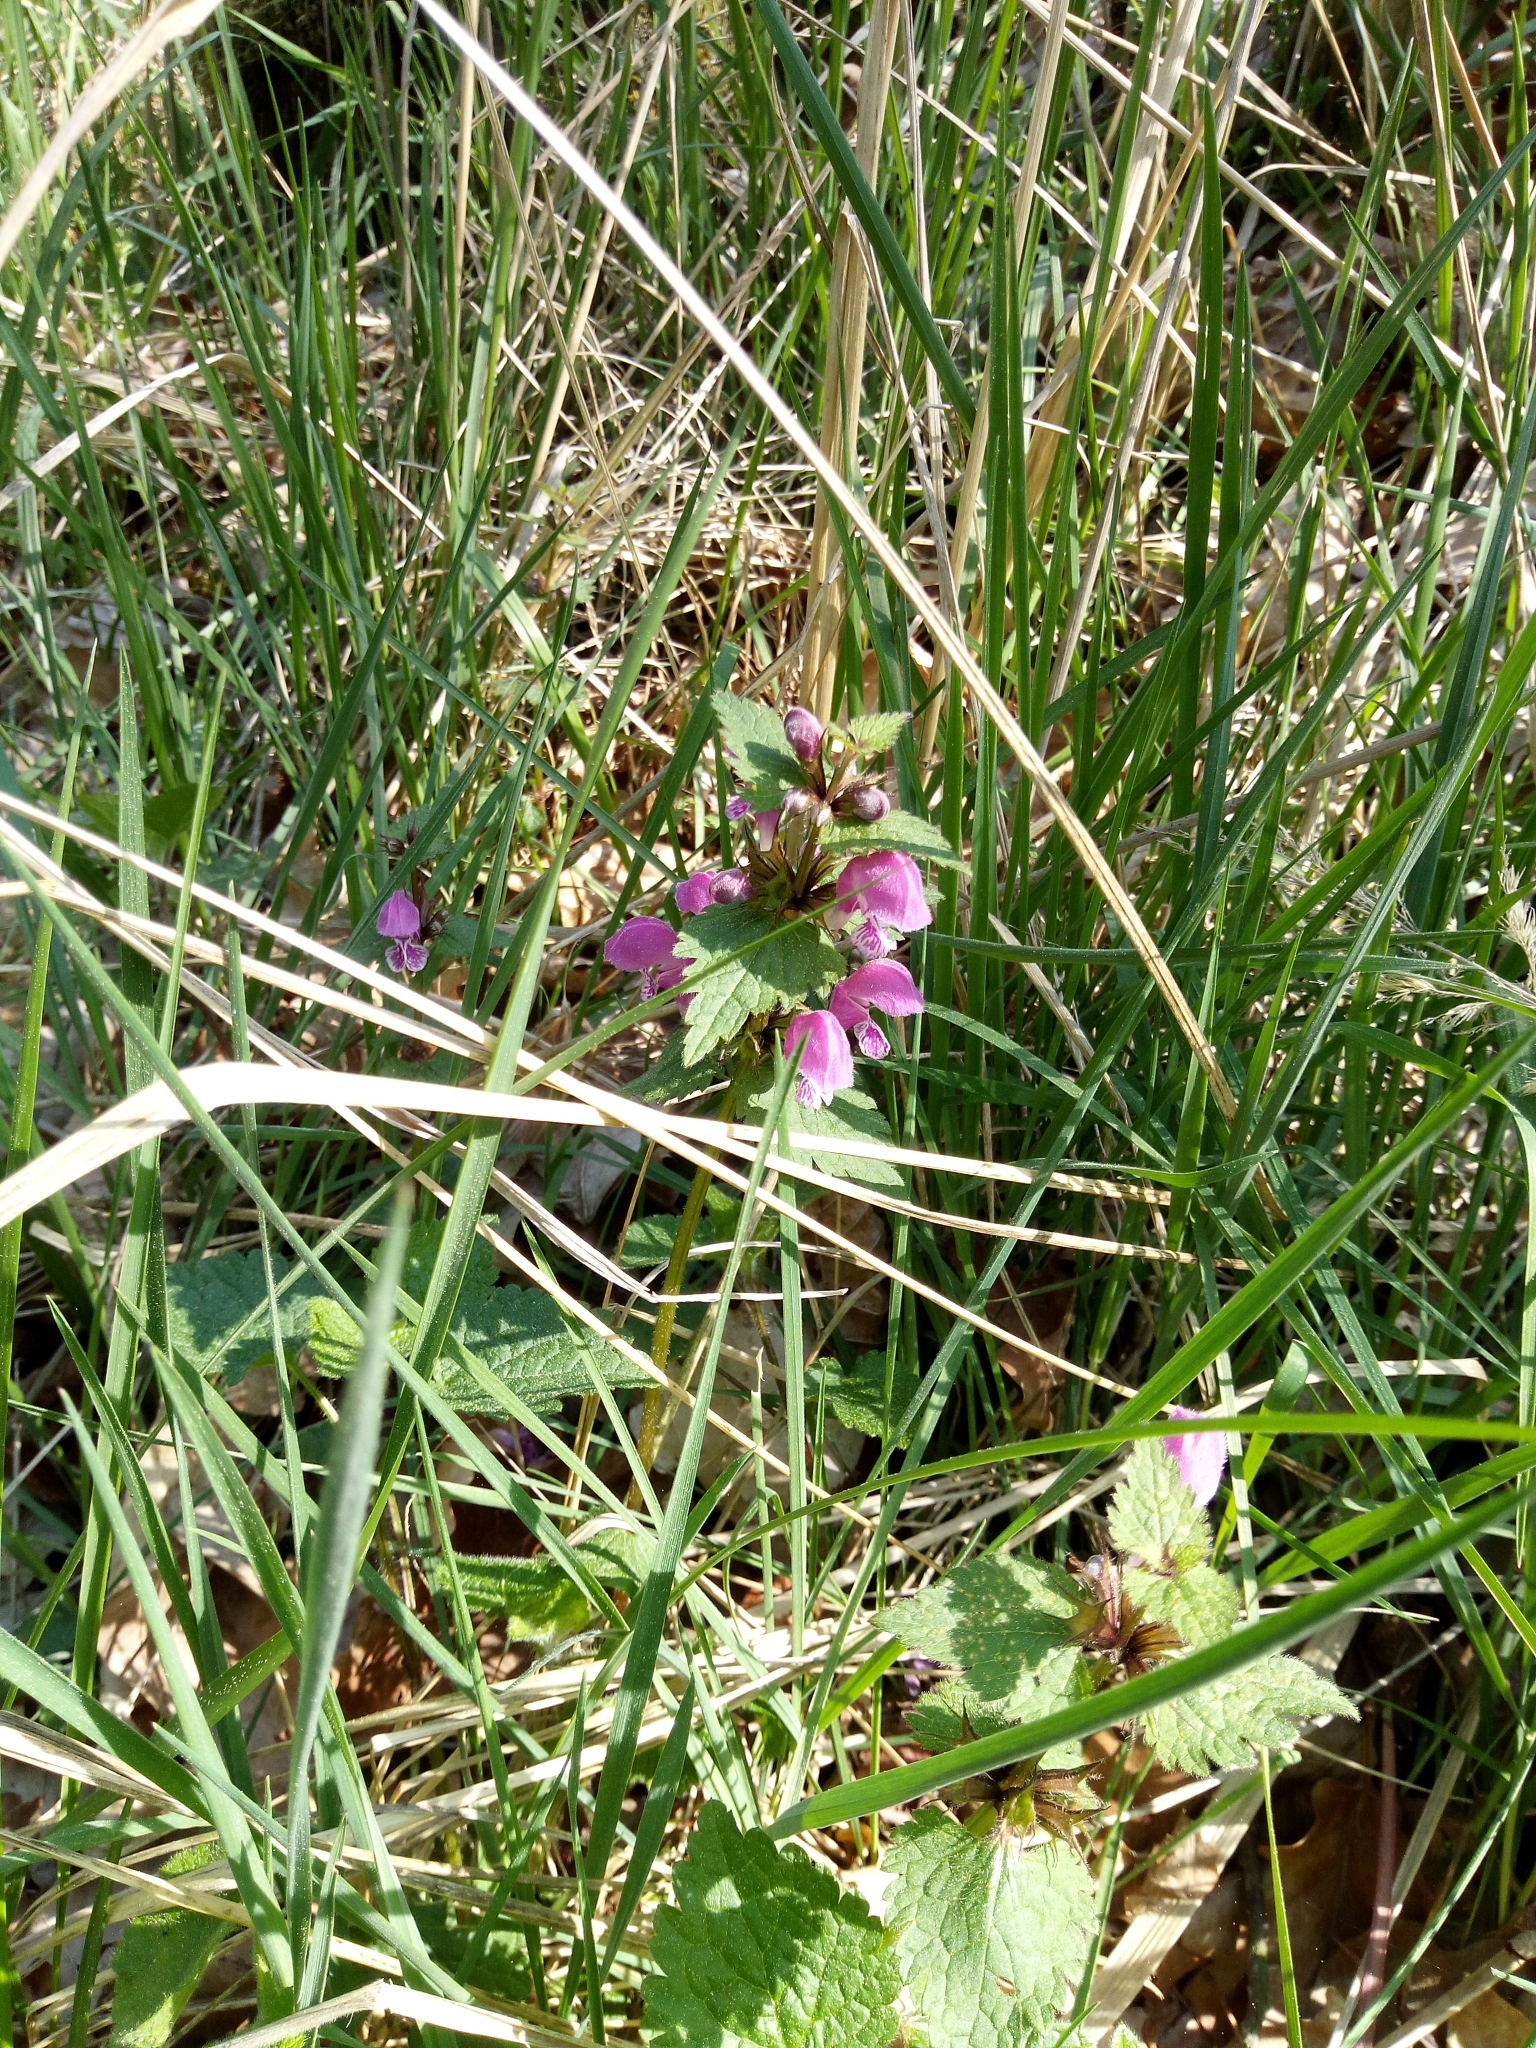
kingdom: Plantae
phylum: Tracheophyta
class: Magnoliopsida
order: Lamiales
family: Lamiaceae
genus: Lamium
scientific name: Lamium maculatum
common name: Spotted dead-nettle
